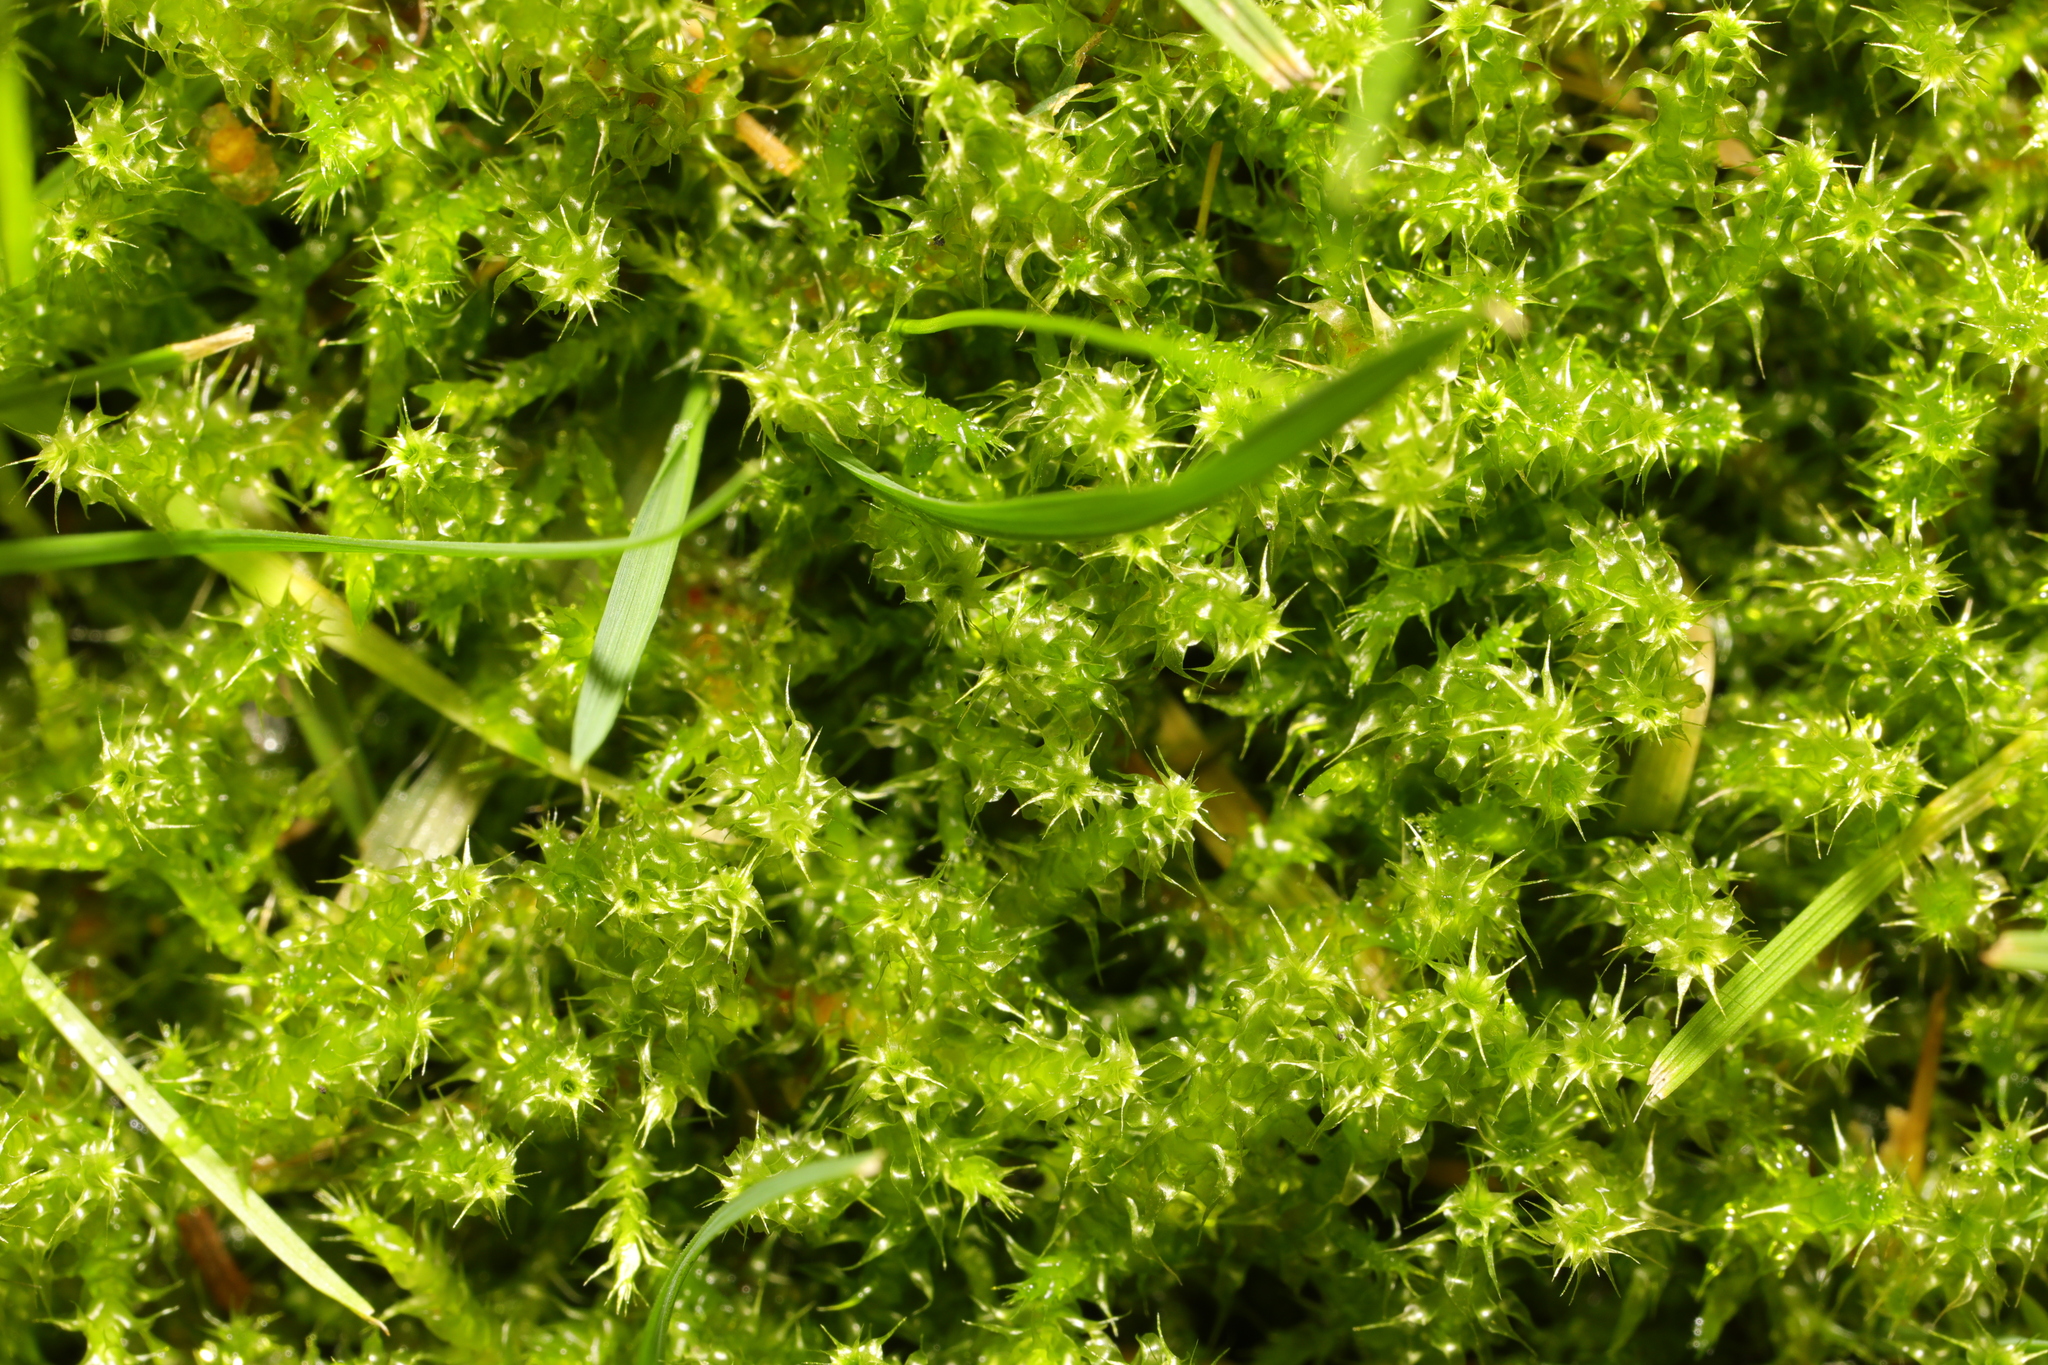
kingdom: Plantae
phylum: Bryophyta
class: Bryopsida
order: Hypnales
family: Hylocomiaceae
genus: Rhytidiadelphus
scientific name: Rhytidiadelphus squarrosus
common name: Springy turf-moss
